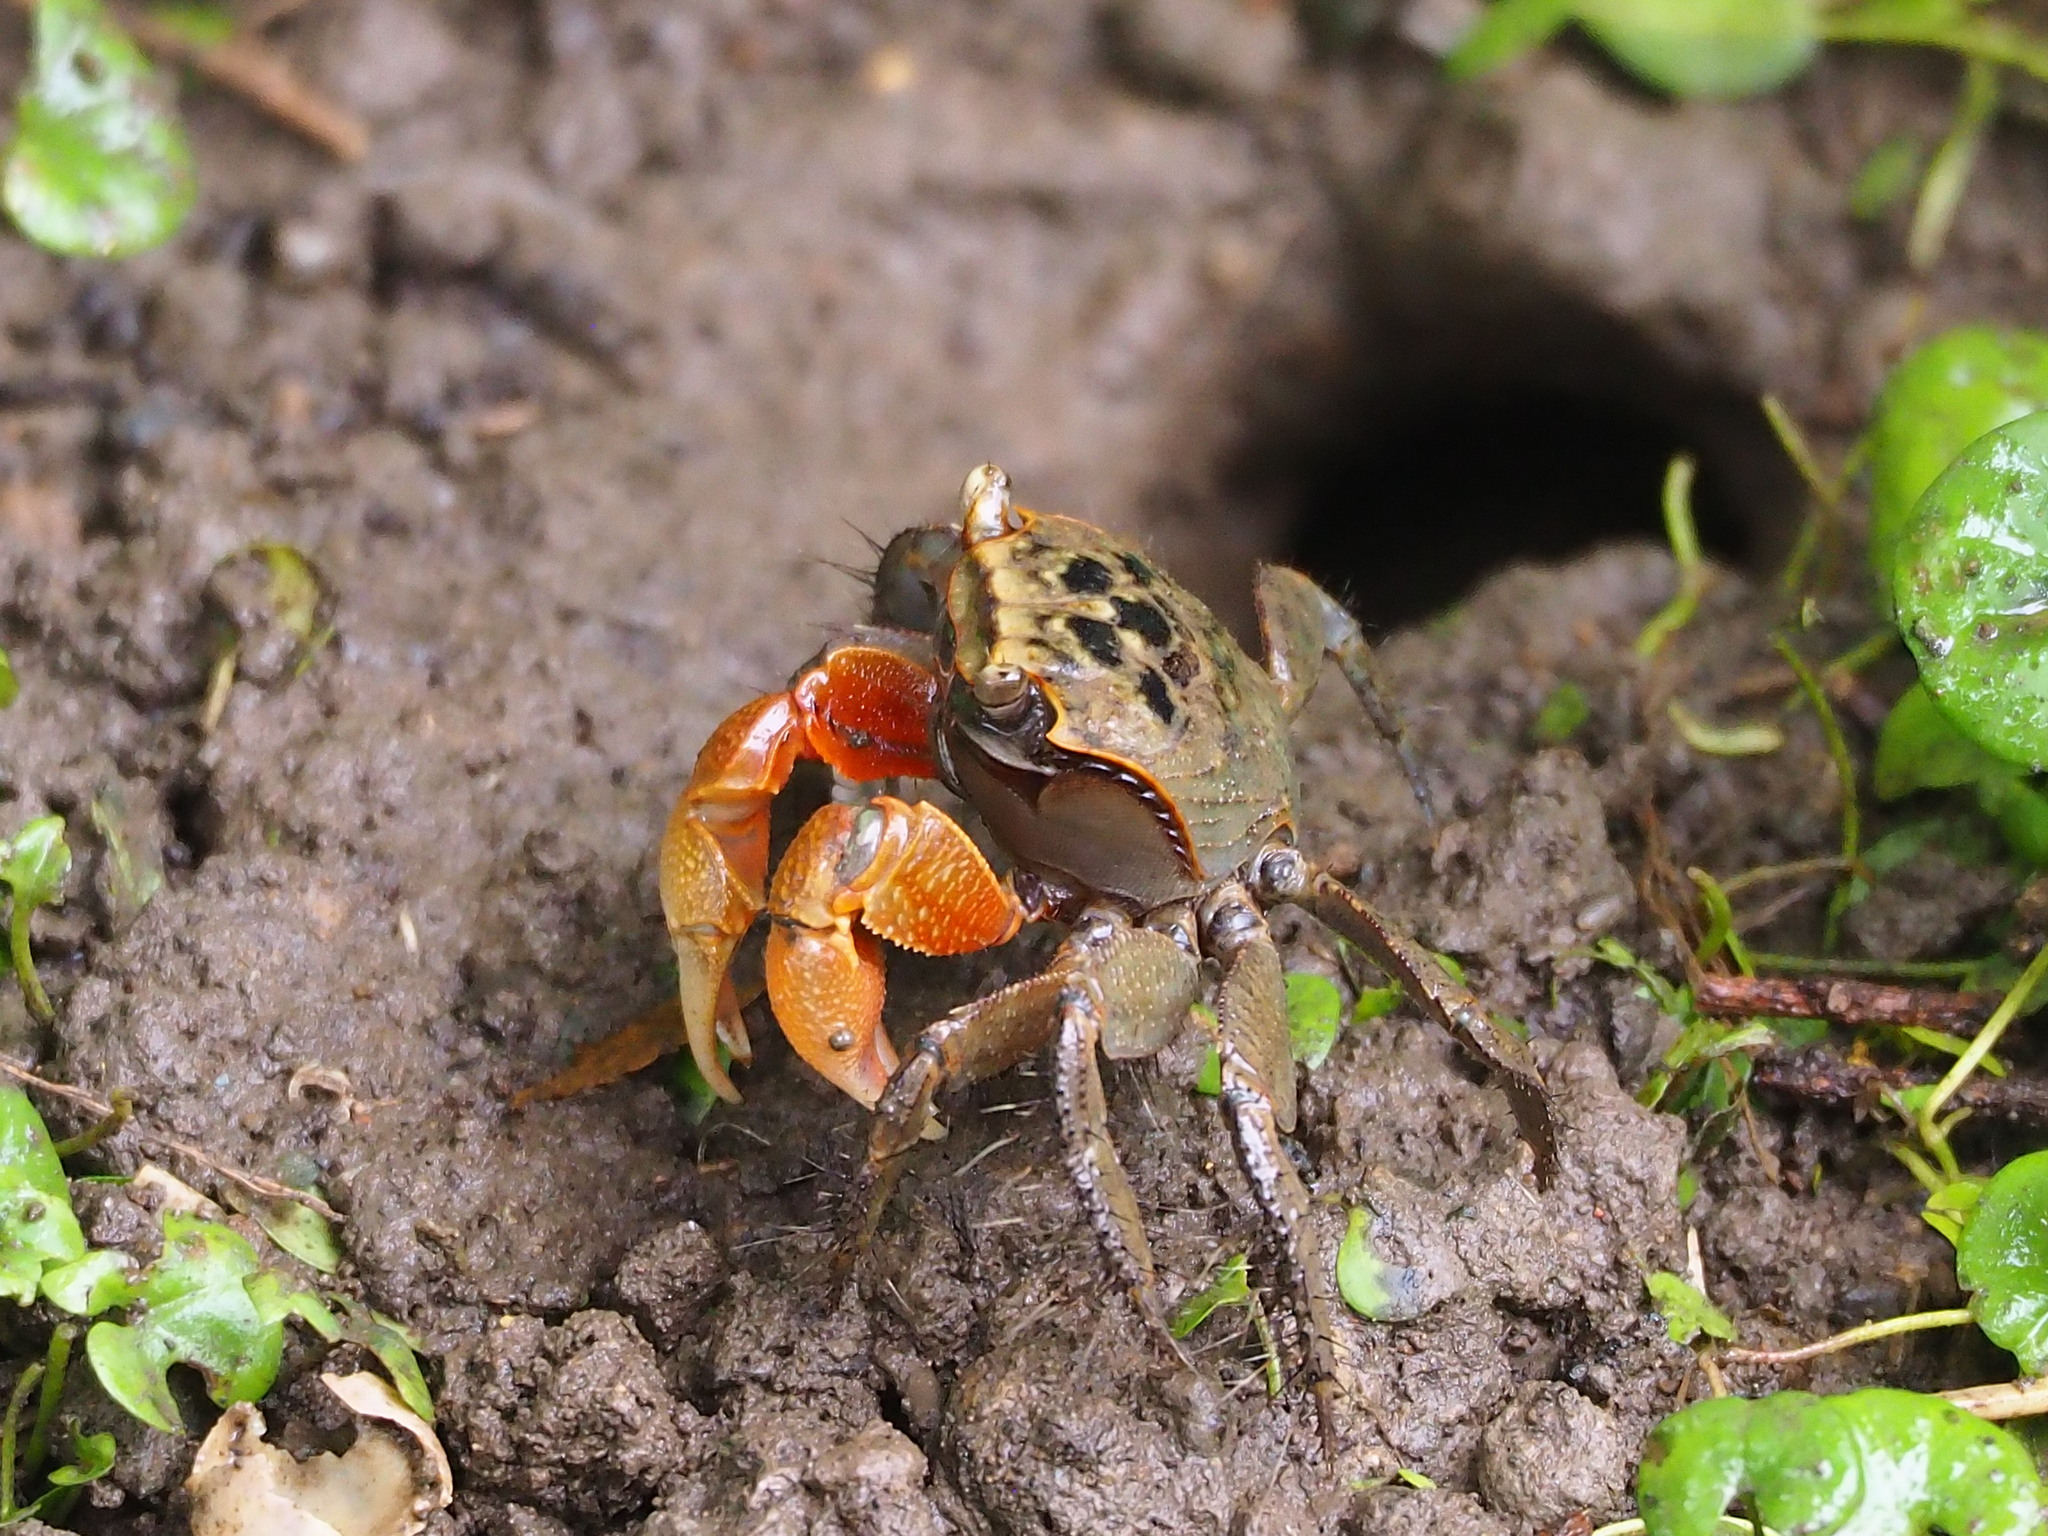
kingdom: Animalia
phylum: Arthropoda
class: Malacostraca
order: Decapoda
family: Sesarmidae
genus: Orisarma
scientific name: Orisarma dehaani
